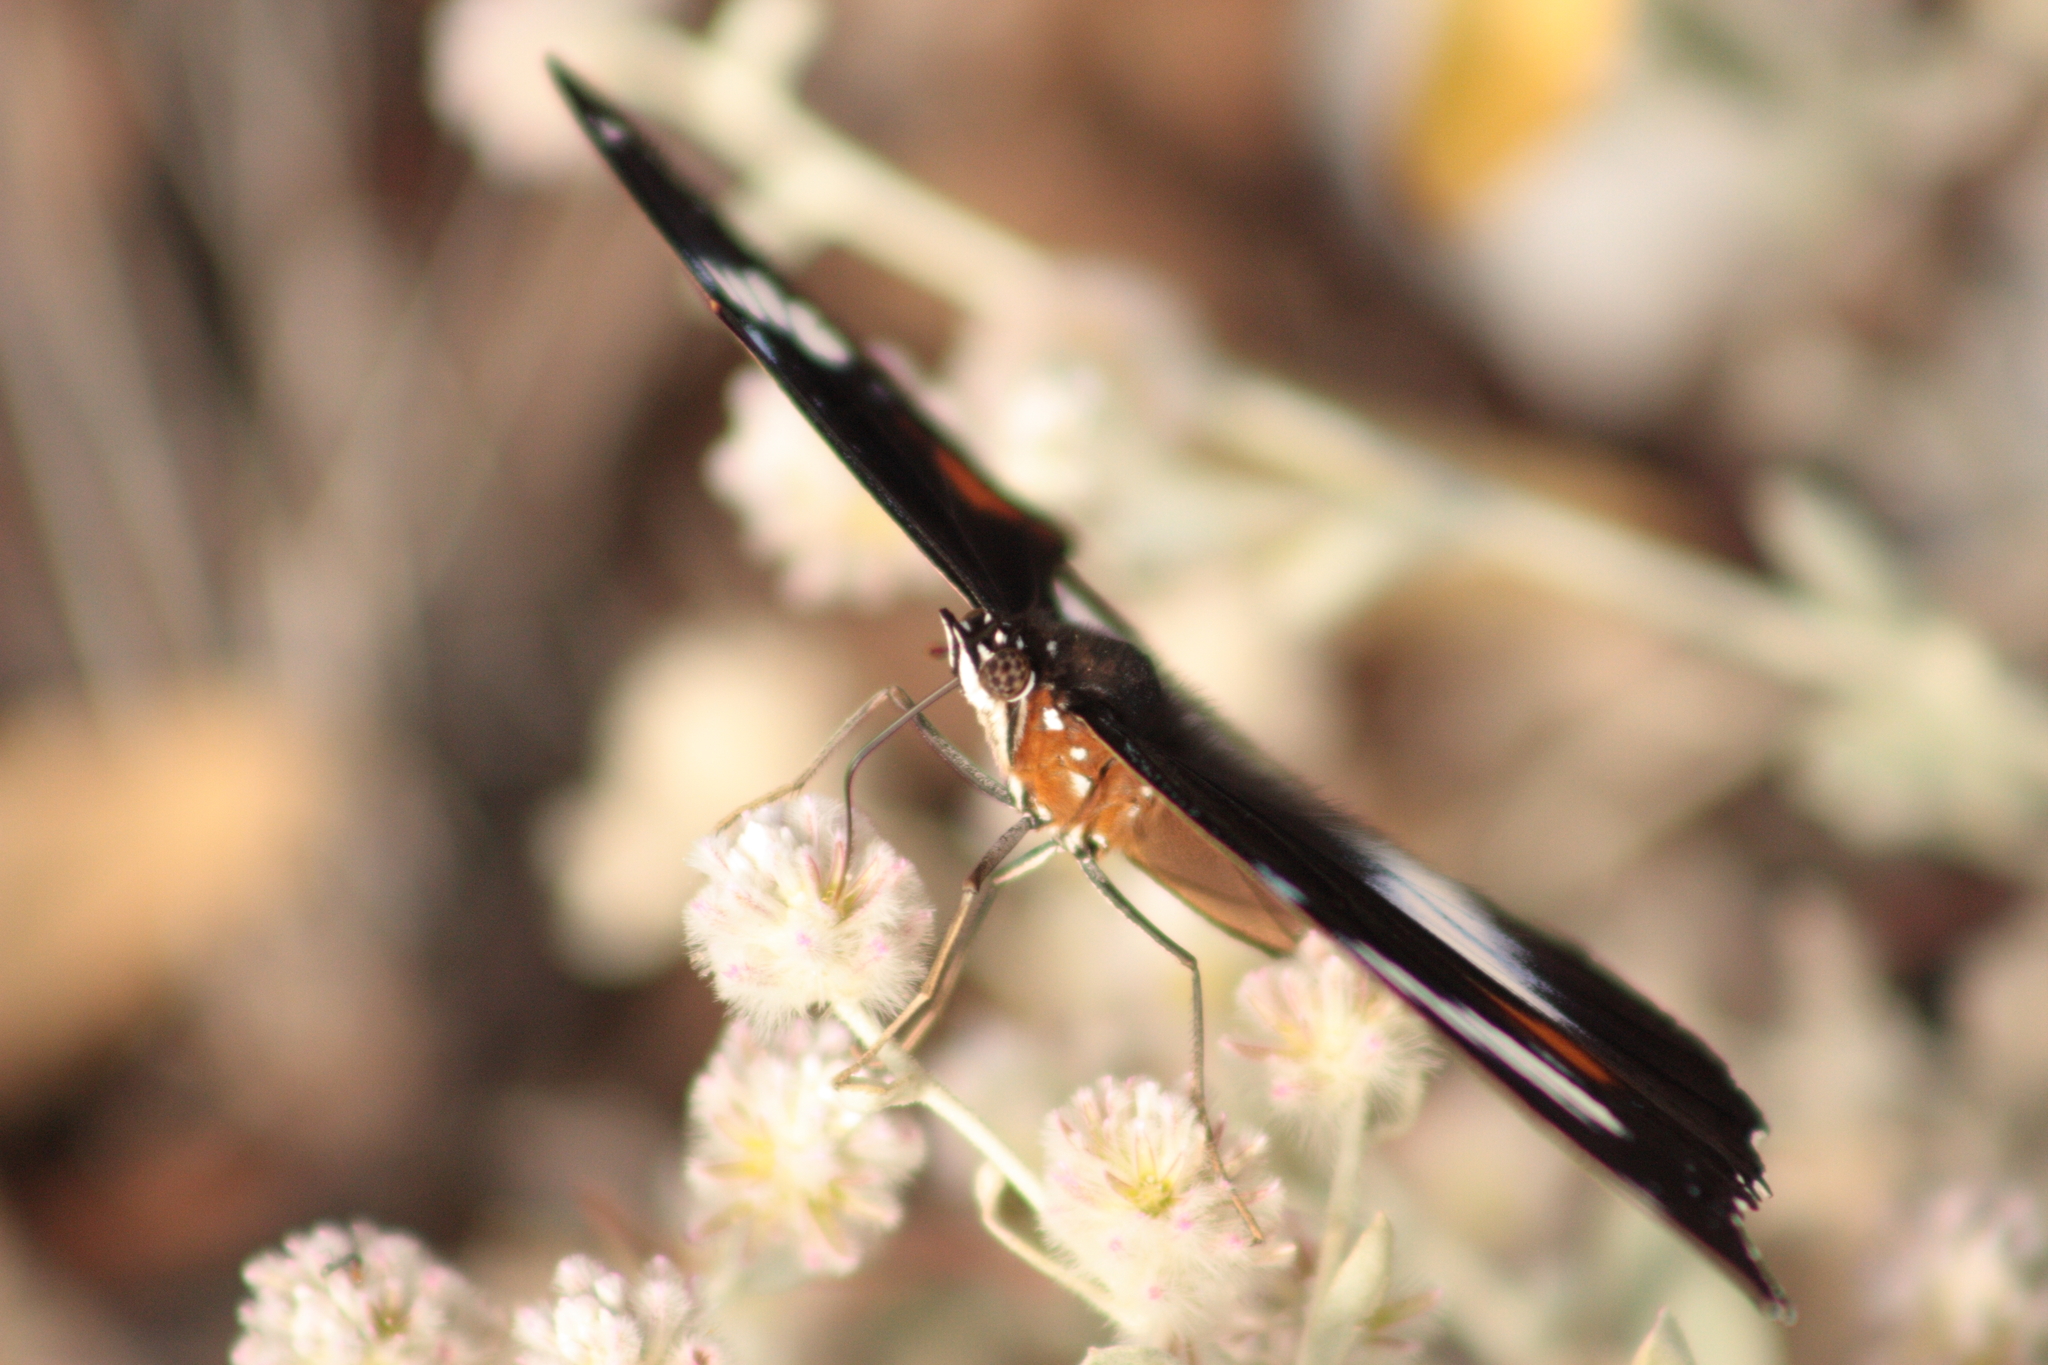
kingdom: Animalia
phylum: Arthropoda
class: Insecta
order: Lepidoptera
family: Nymphalidae
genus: Hypolimnas
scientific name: Hypolimnas bolina
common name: Great eggfly
